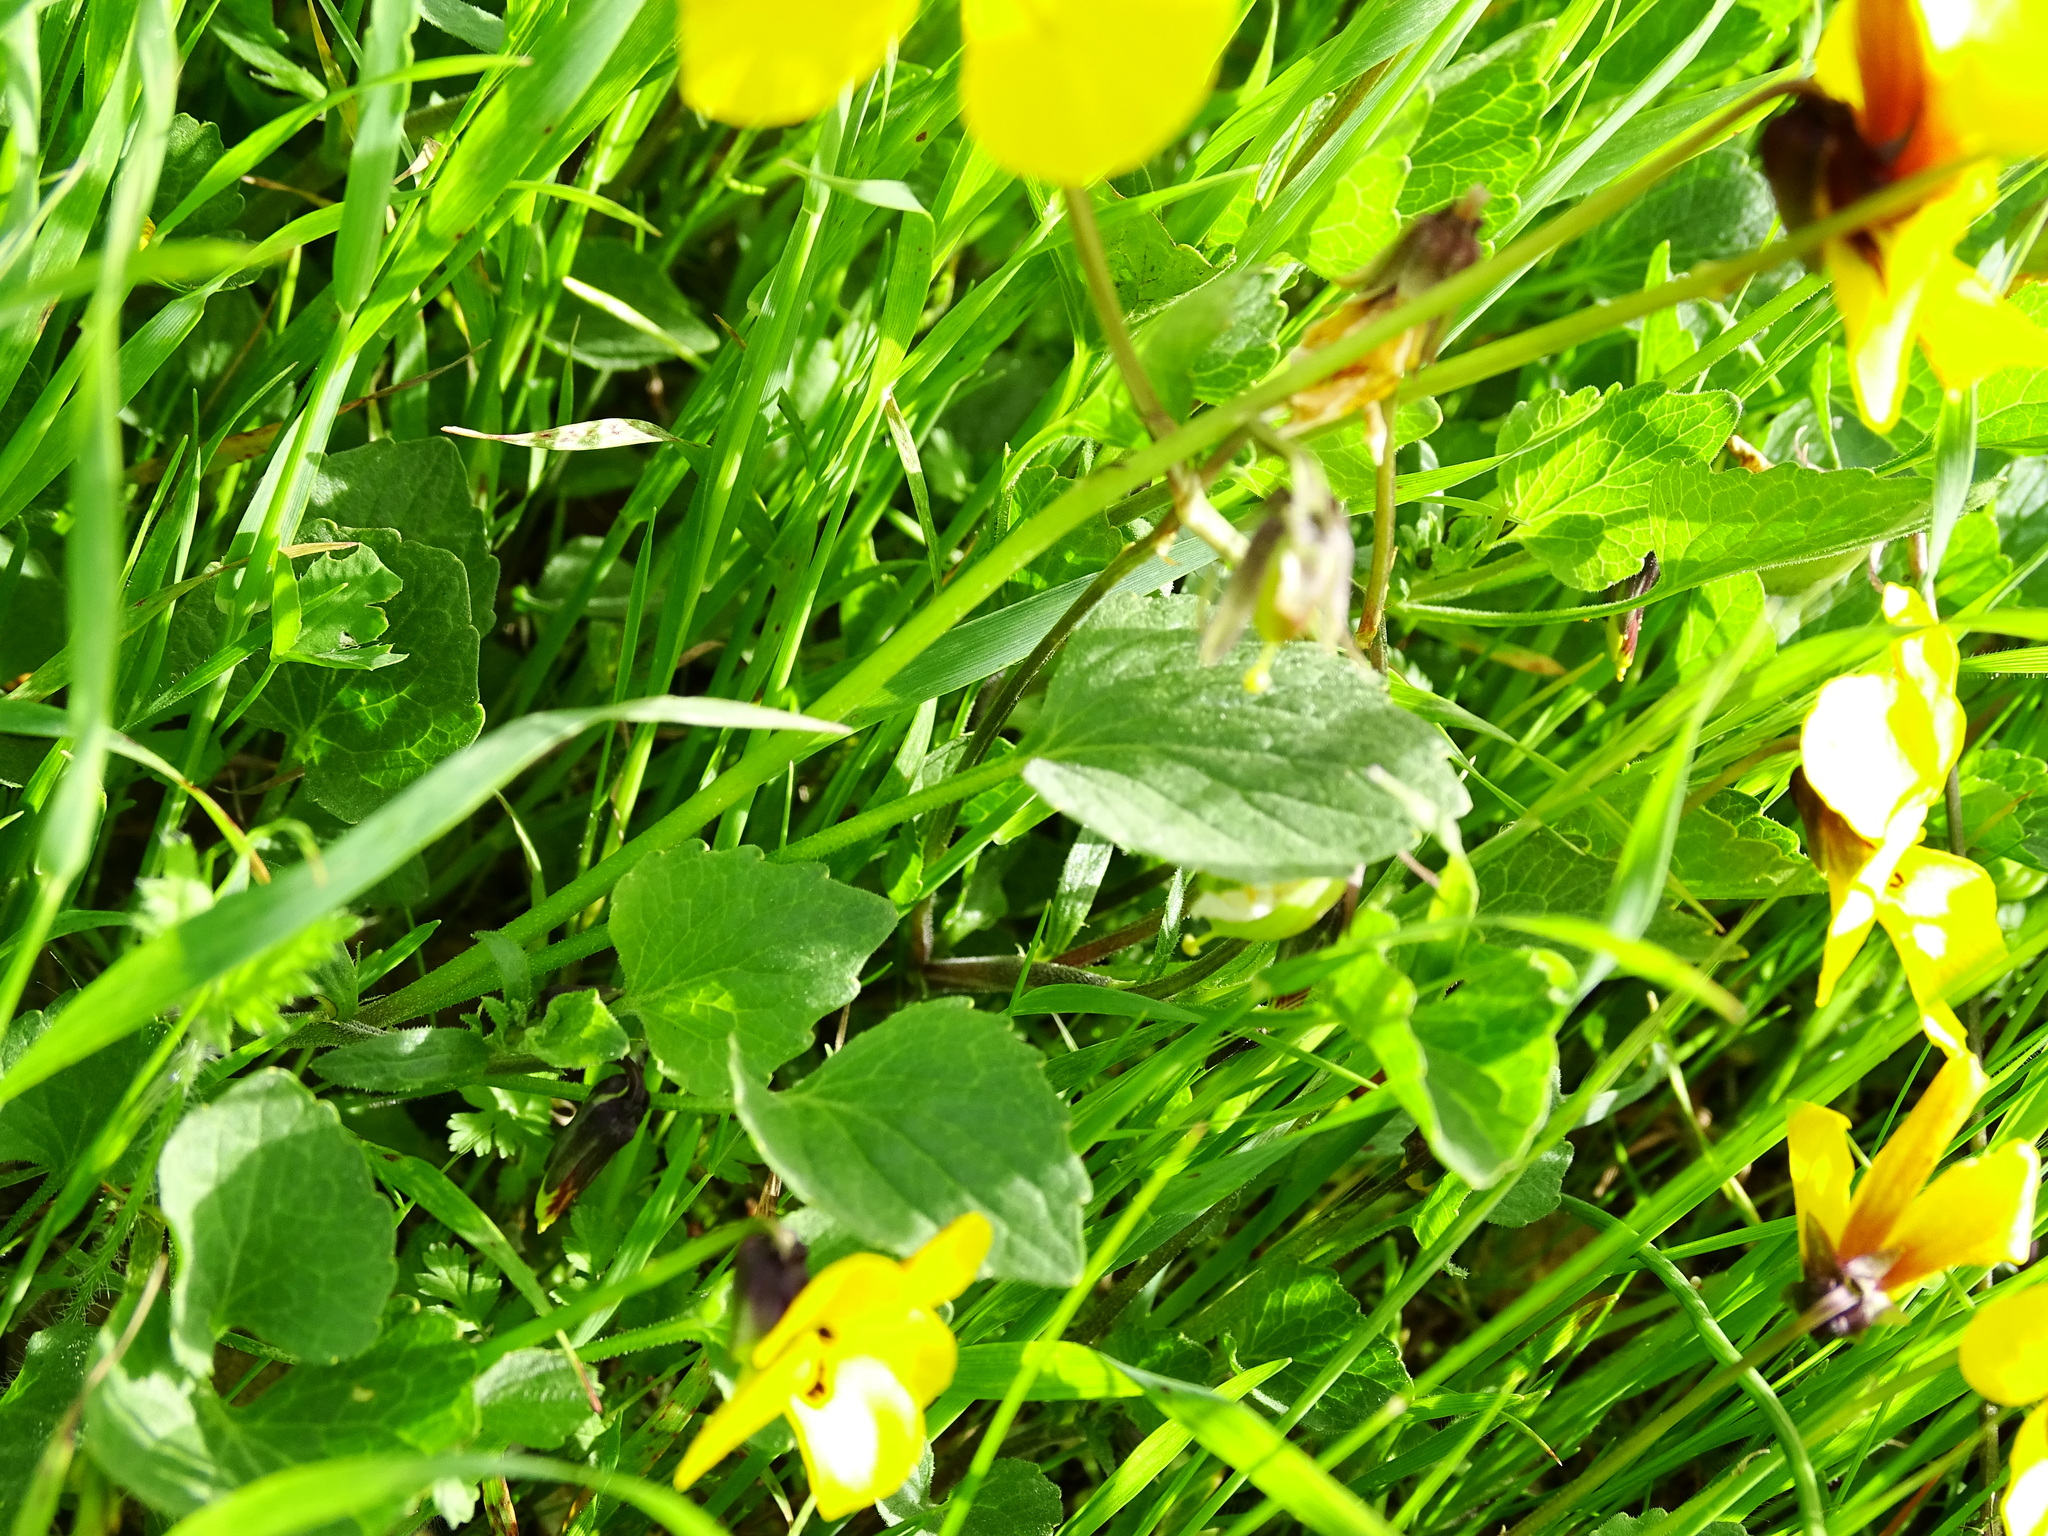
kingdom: Plantae
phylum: Tracheophyta
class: Magnoliopsida
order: Malpighiales
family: Violaceae
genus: Viola
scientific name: Viola pedunculata
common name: California golden violet
